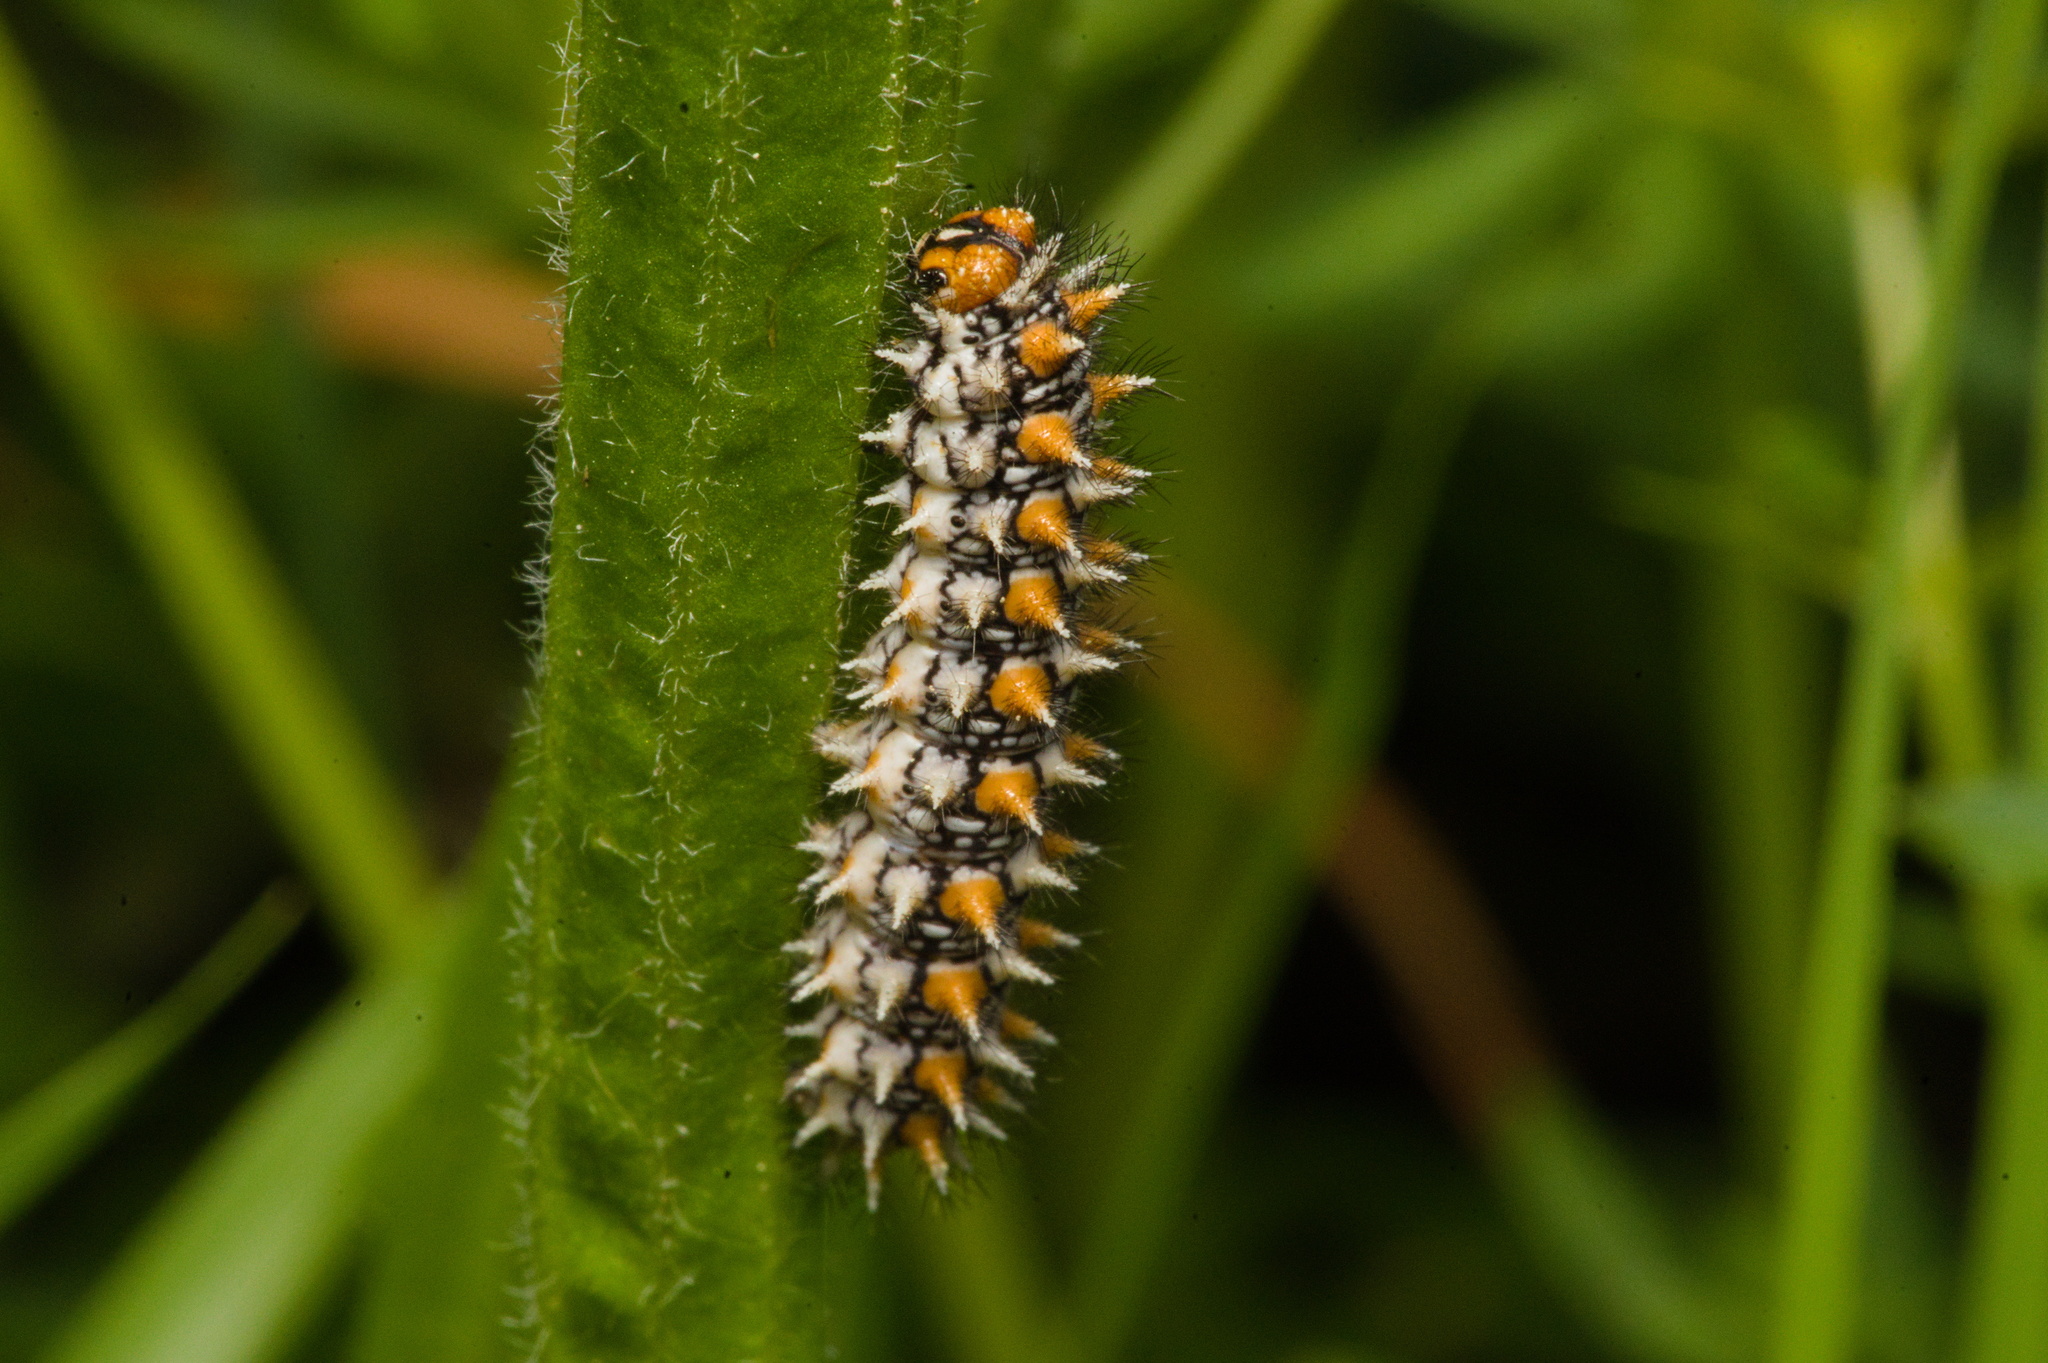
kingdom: Animalia
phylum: Arthropoda
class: Insecta
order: Lepidoptera
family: Nymphalidae
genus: Melitaea
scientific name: Melitaea didyma
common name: Spotted fritillary
